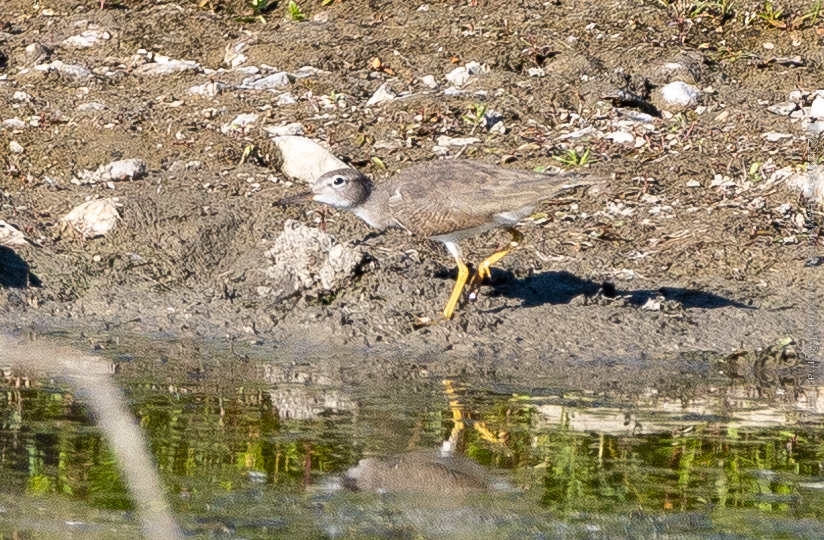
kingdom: Animalia
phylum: Chordata
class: Aves
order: Charadriiformes
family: Scolopacidae
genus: Tringa
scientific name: Tringa solitaria
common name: Solitary sandpiper
